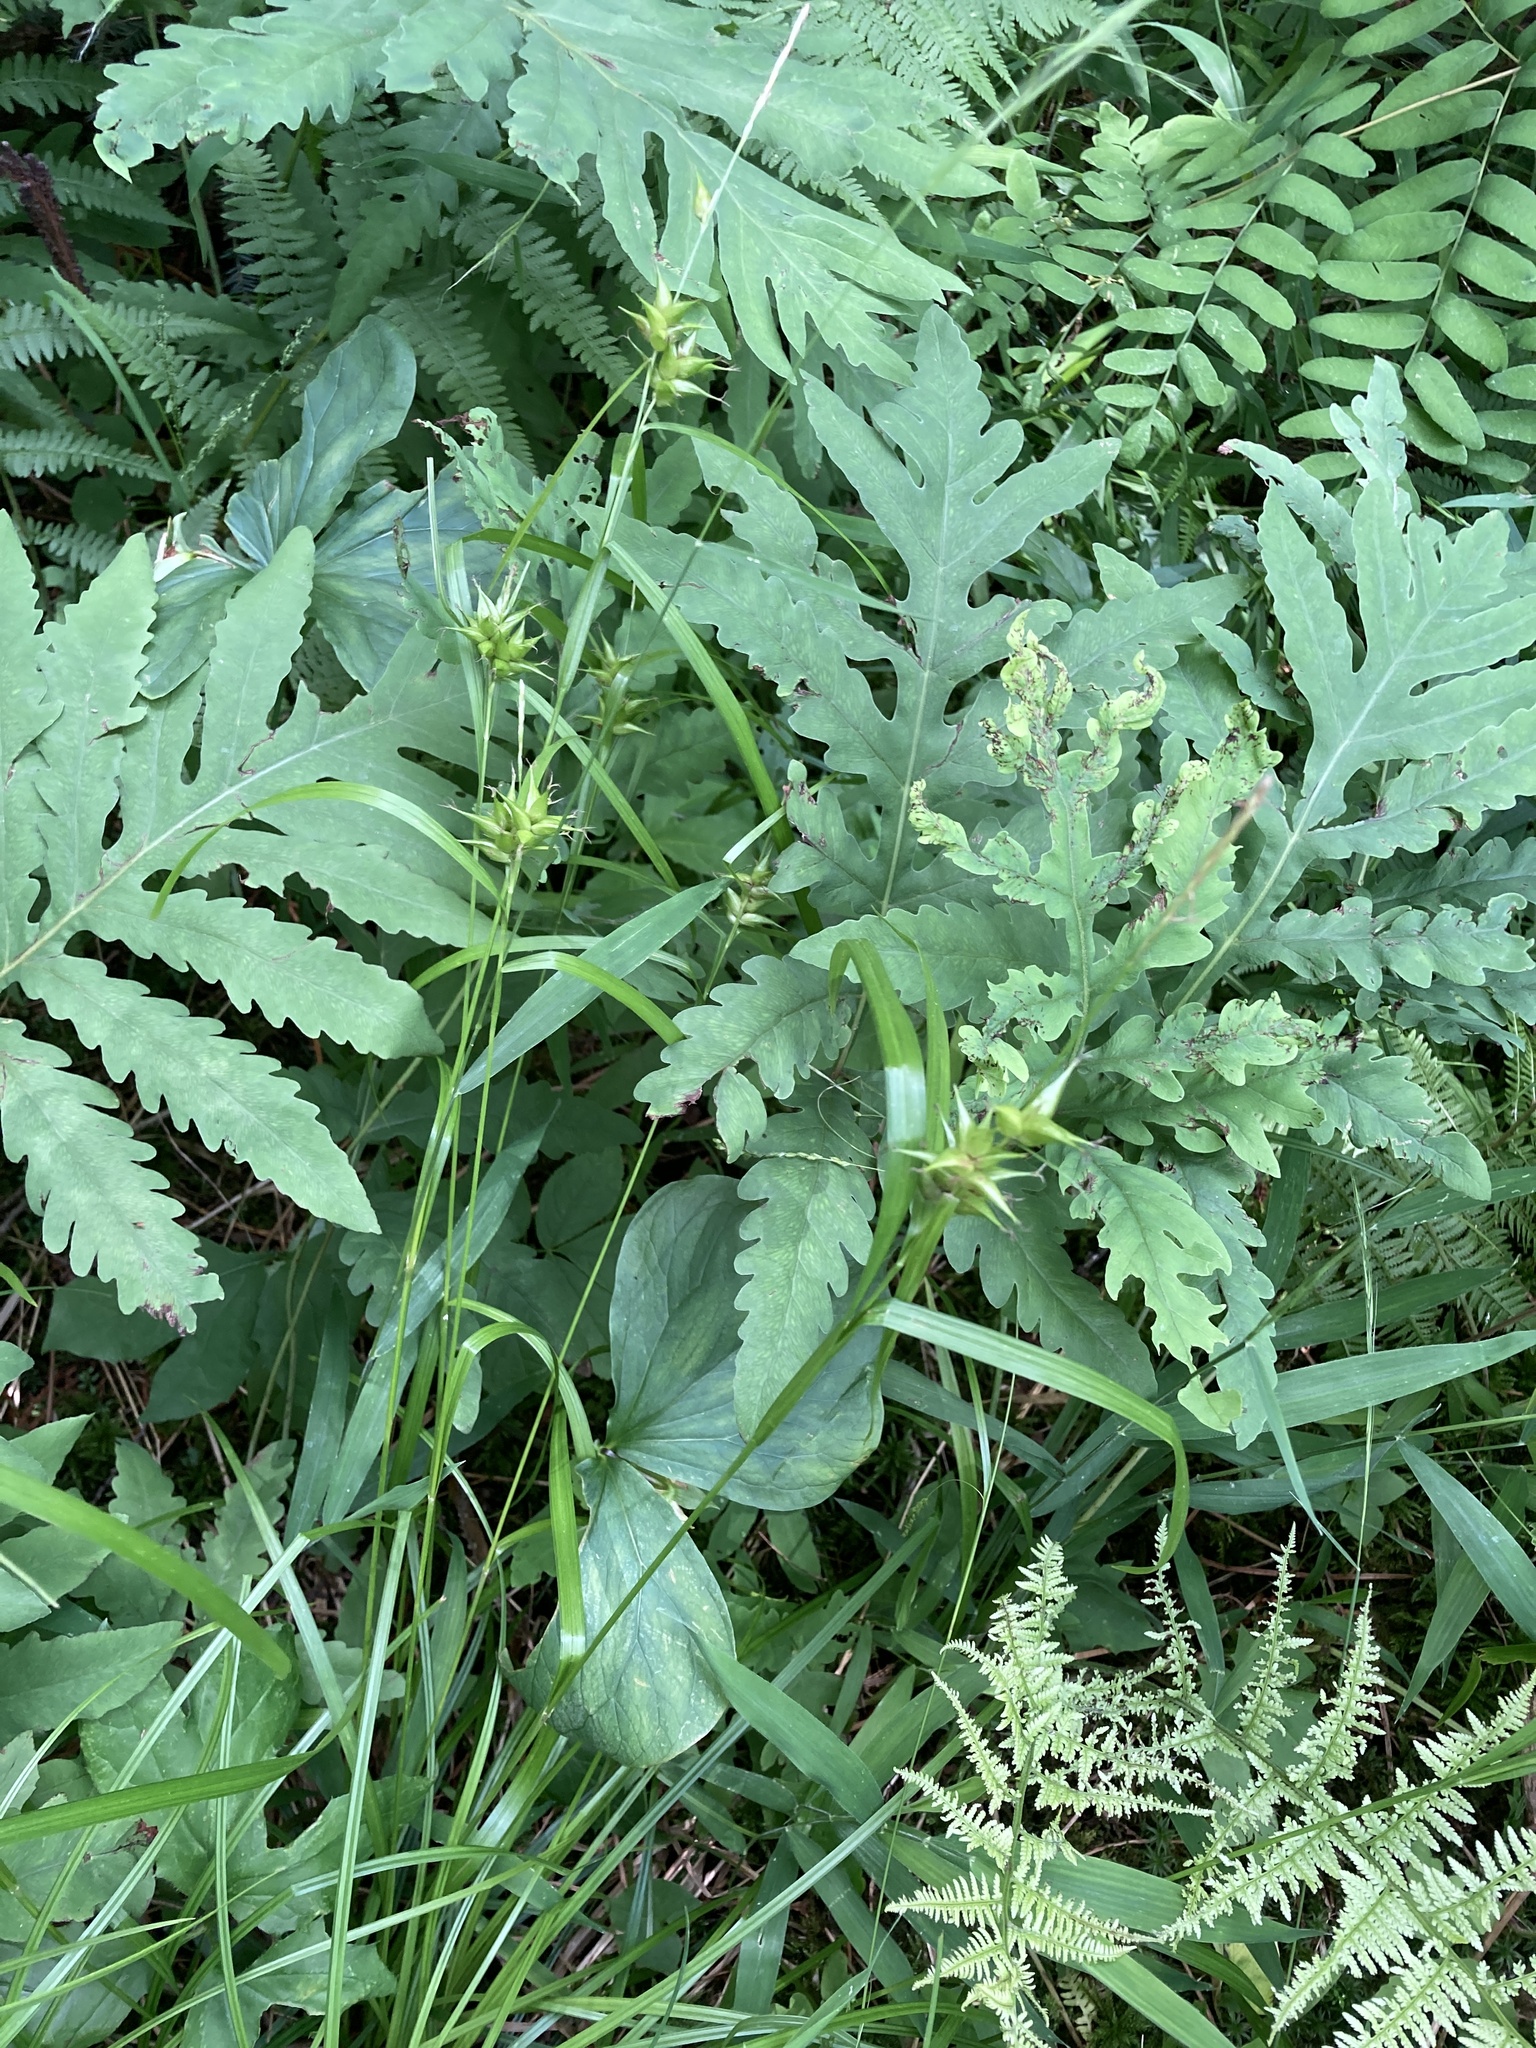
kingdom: Plantae
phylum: Tracheophyta
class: Liliopsida
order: Poales
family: Cyperaceae
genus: Carex
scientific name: Carex intumescens
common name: Greater bladder sedge
